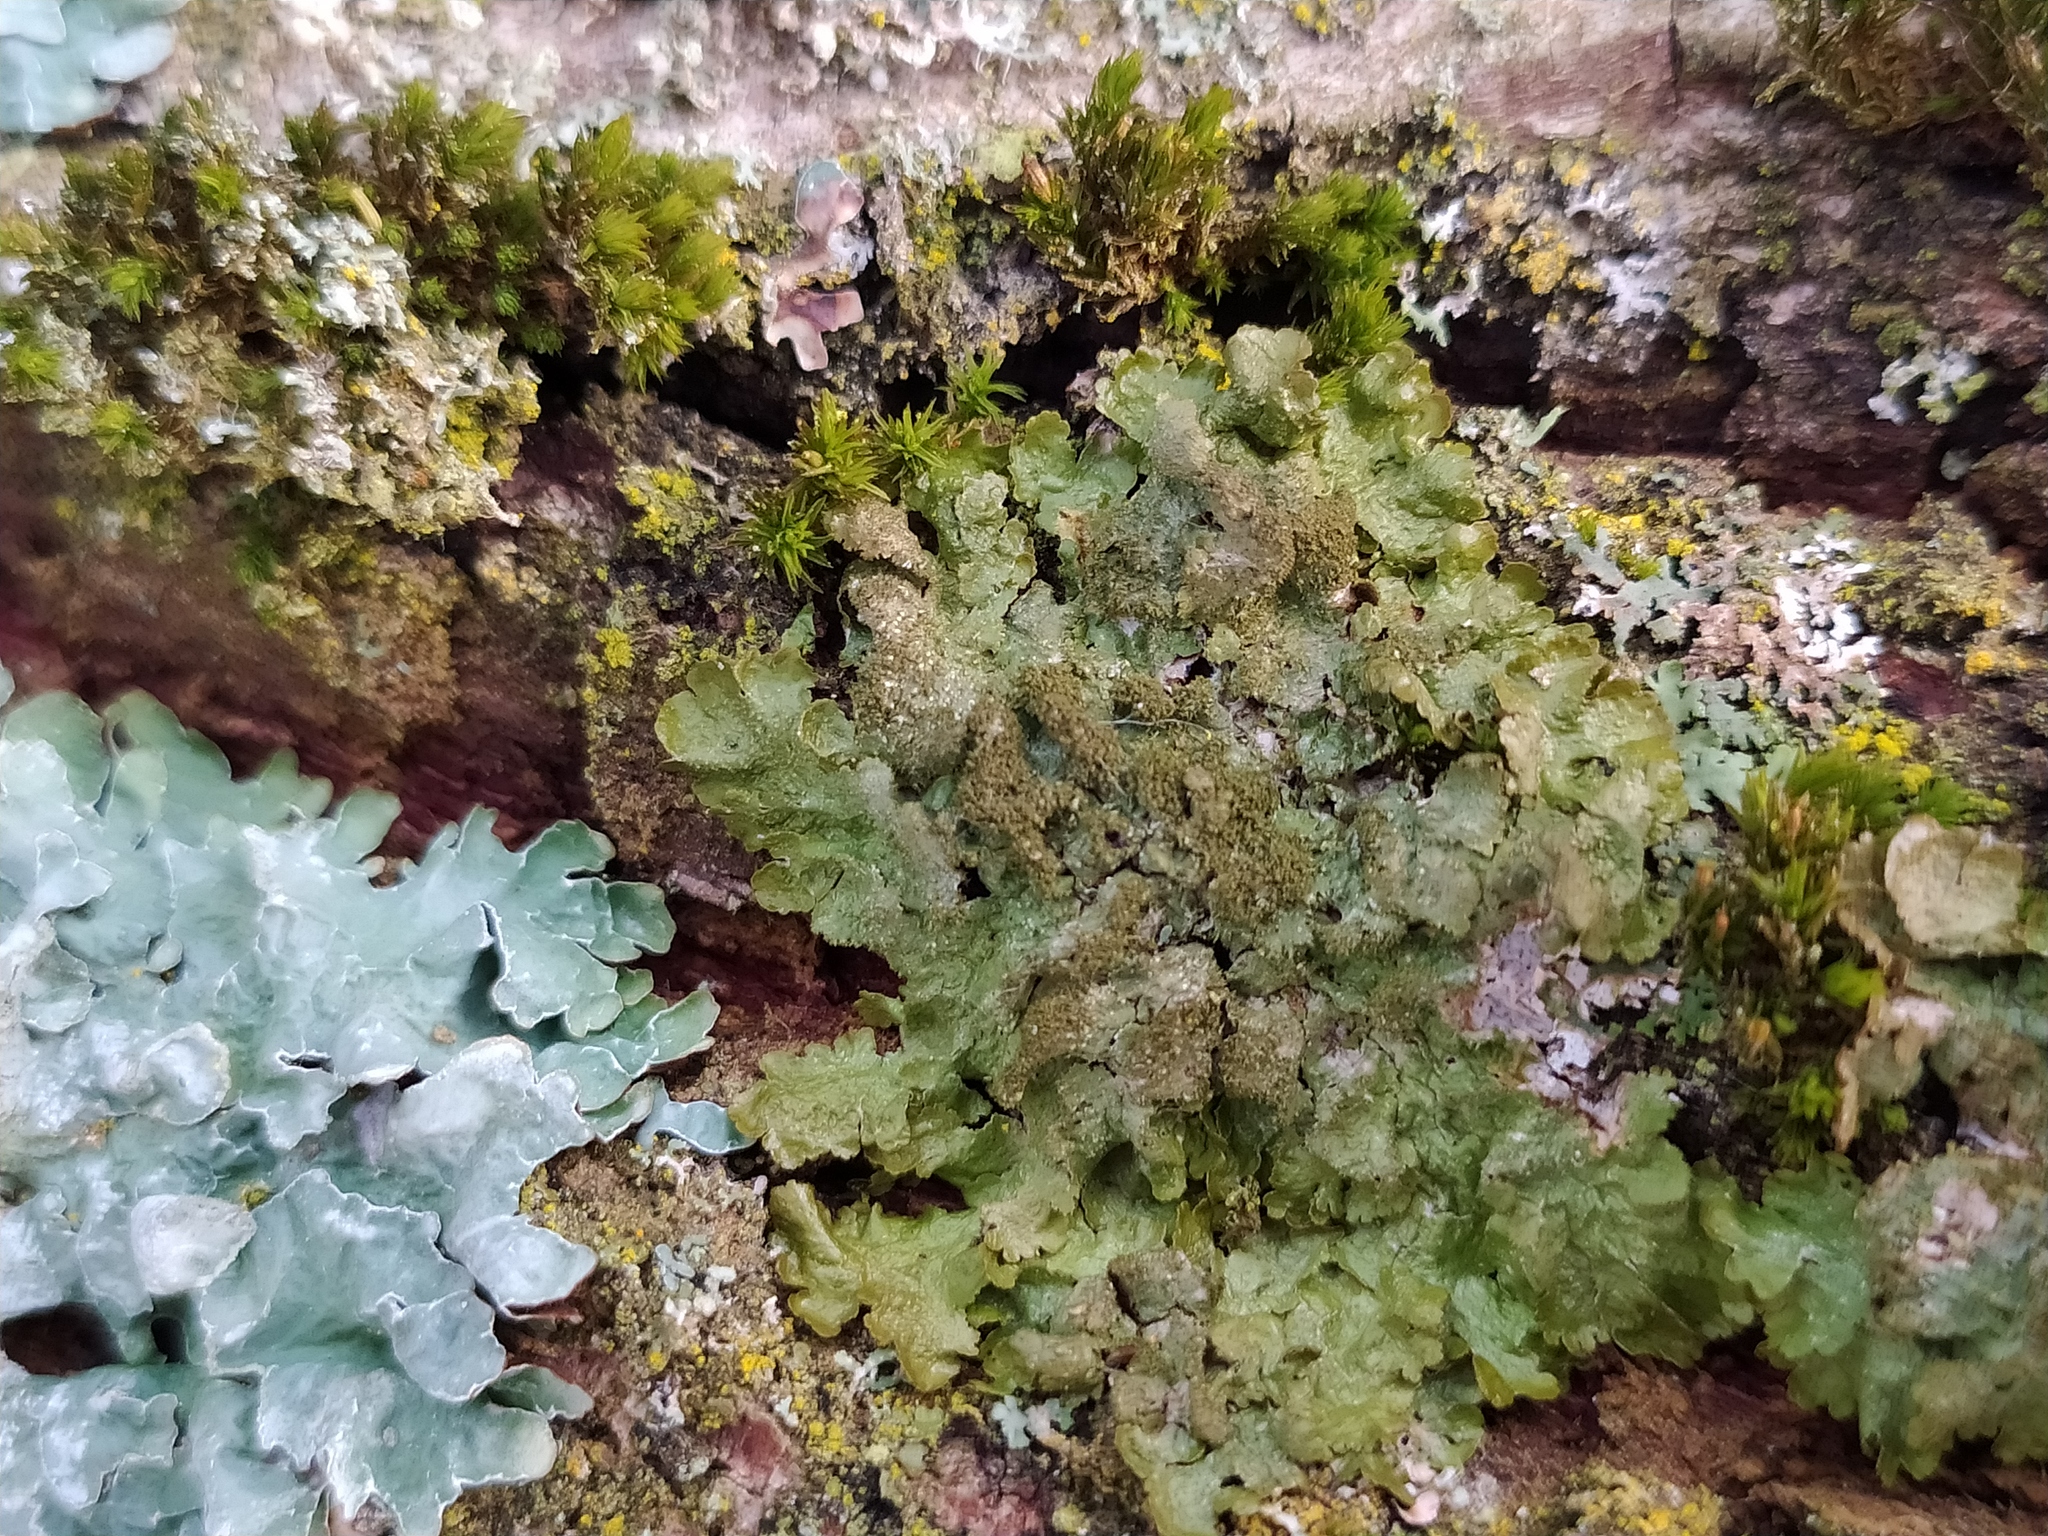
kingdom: Fungi
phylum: Ascomycota
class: Lecanoromycetes
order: Lecanorales
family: Parmeliaceae
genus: Melanohalea
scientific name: Melanohalea exasperatula
